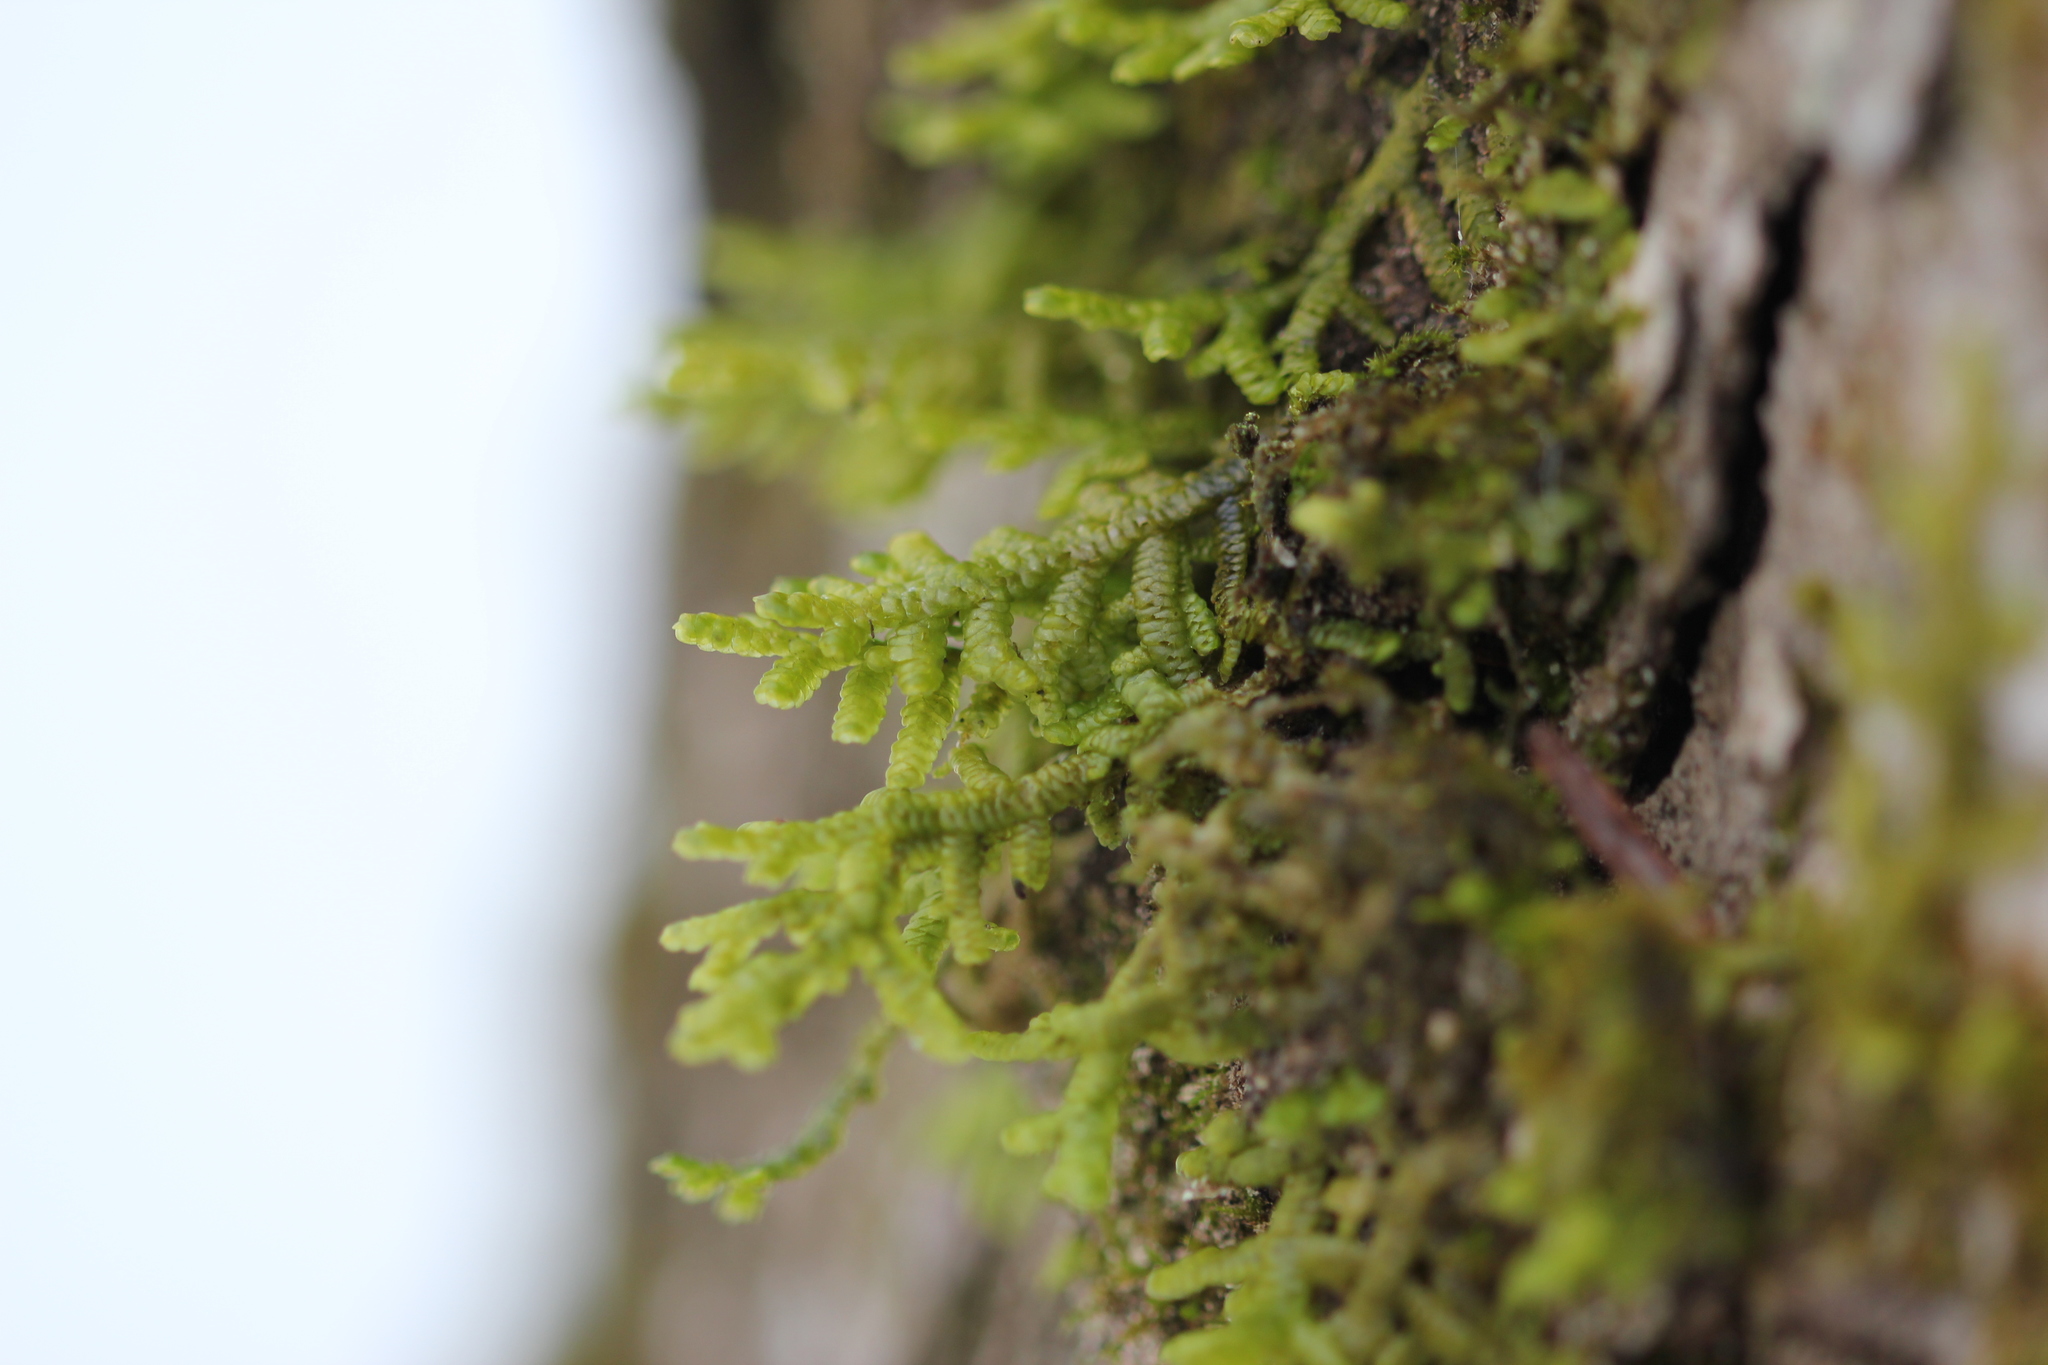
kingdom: Plantae
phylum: Marchantiophyta
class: Jungermanniopsida
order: Porellales
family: Porellaceae
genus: Porella
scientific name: Porella platyphylla
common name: Wall scalewort
